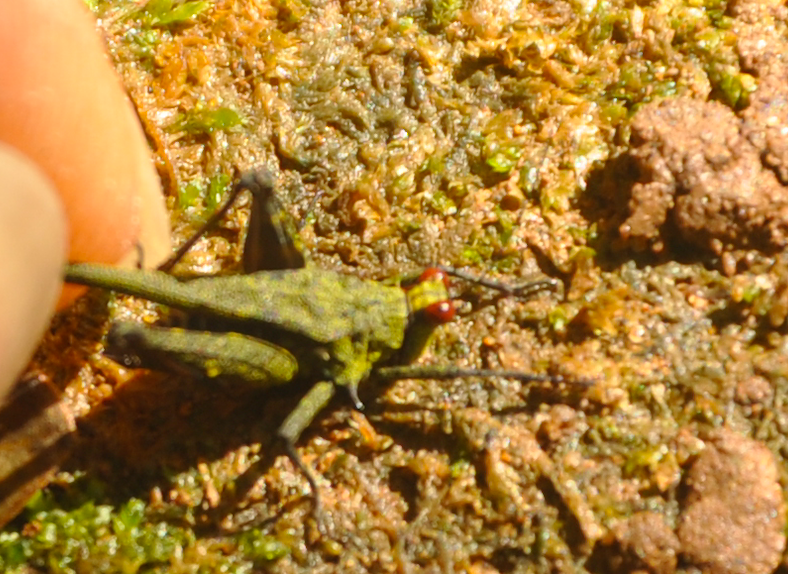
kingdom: Animalia
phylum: Arthropoda
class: Insecta
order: Orthoptera
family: Tetrigidae
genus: Oxytettix
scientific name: Oxytettix arius
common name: Yellow-dot black pygmy grasshopper
